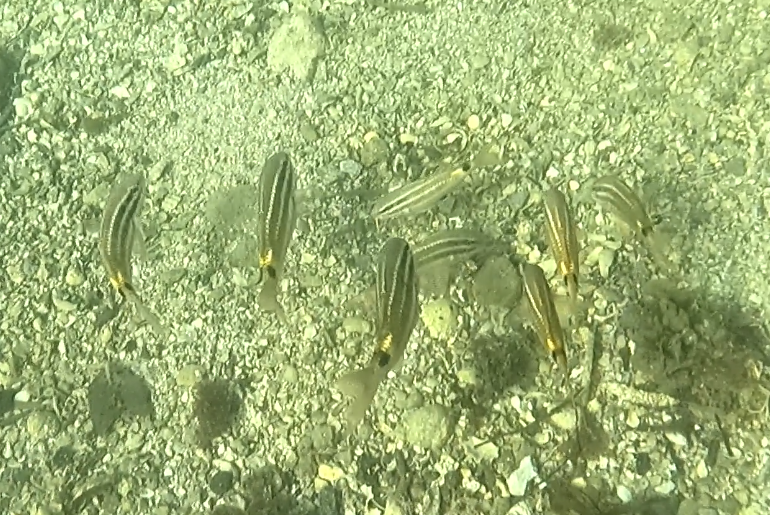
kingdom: Animalia
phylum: Chordata
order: Perciformes
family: Mullidae
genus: Parupeneus
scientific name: Parupeneus spilurus
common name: Blackspot goatfish
